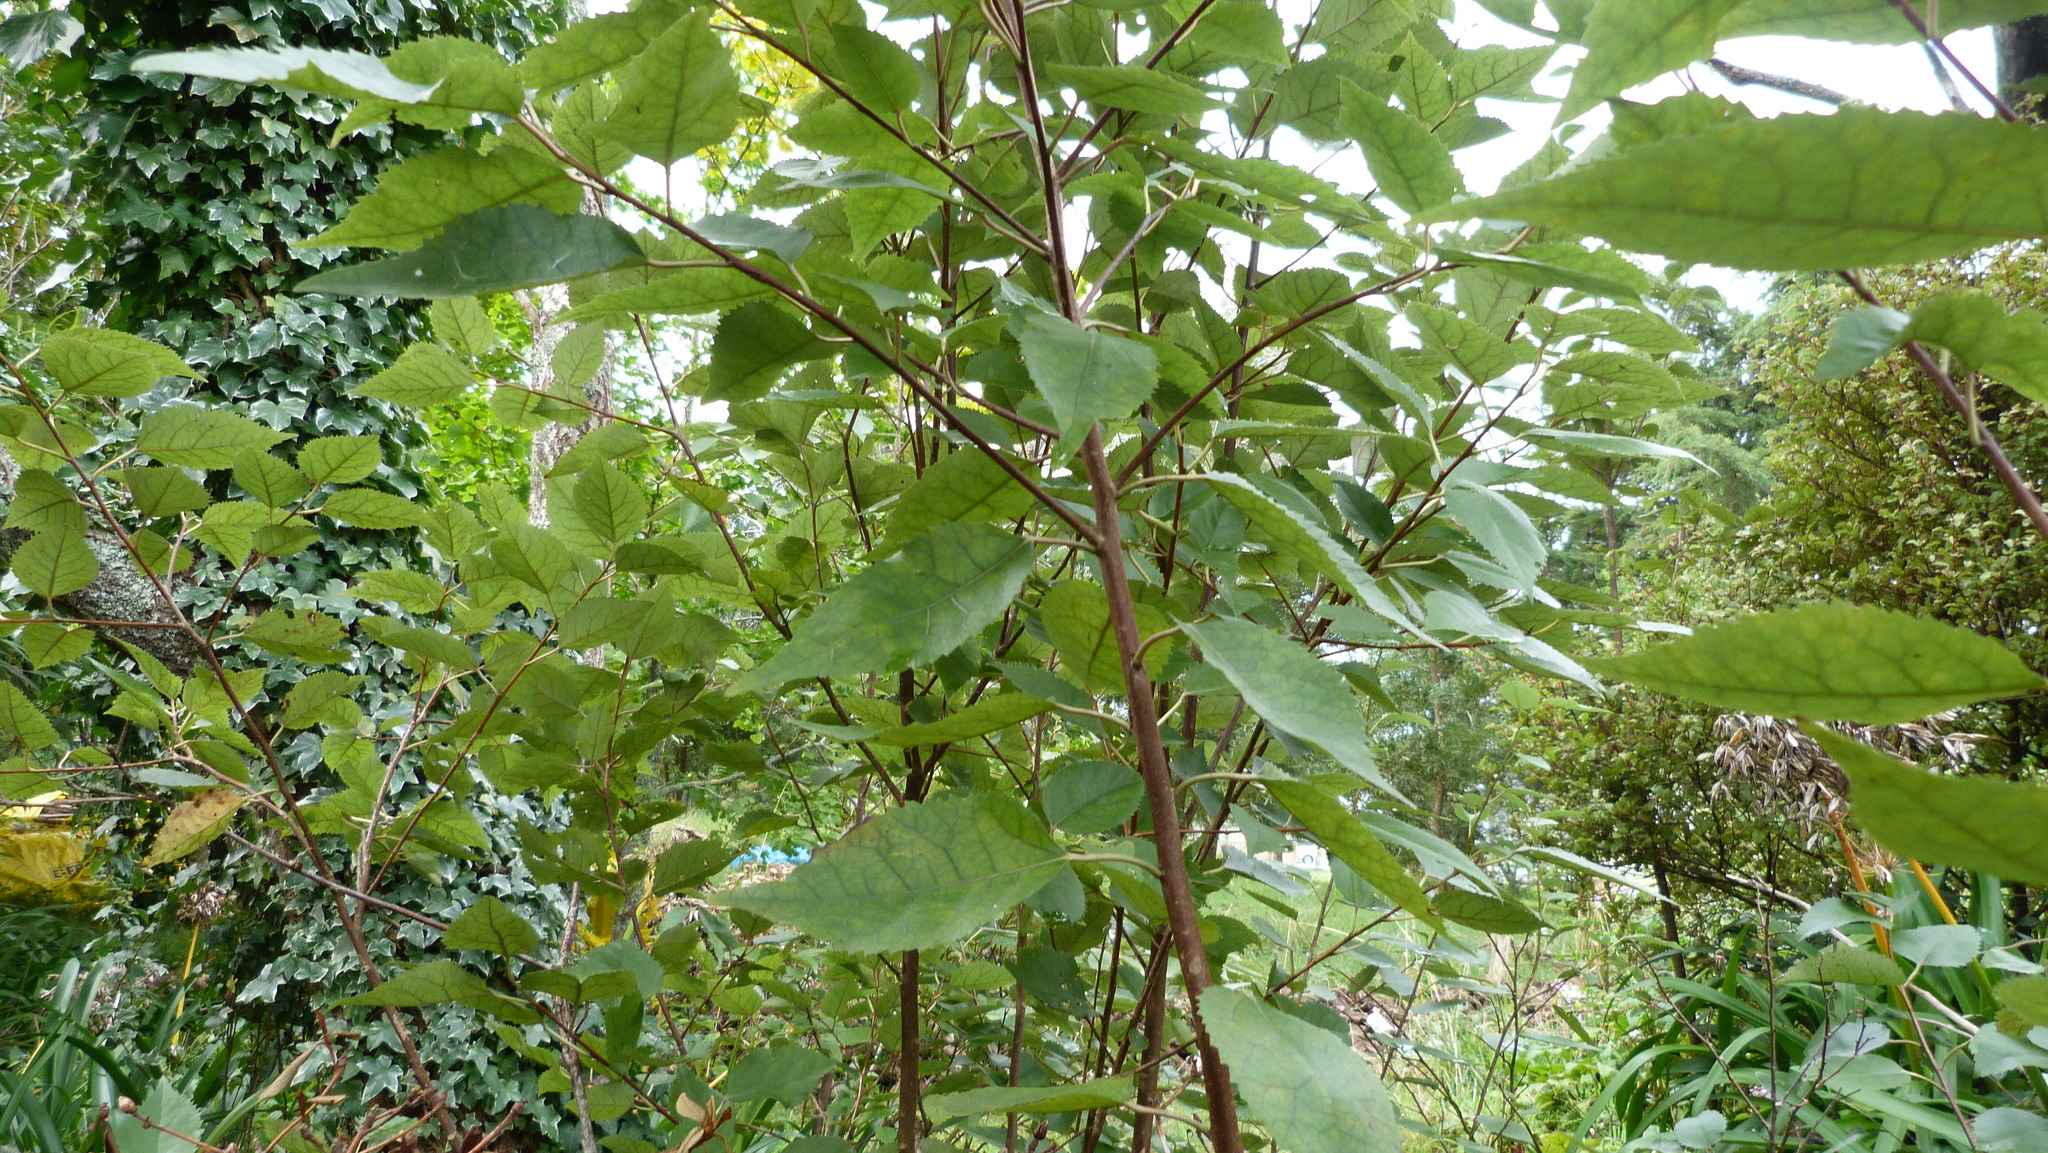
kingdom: Plantae
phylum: Tracheophyta
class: Magnoliopsida
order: Malvales
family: Malvaceae
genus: Hoheria
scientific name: Hoheria populnea
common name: Lacebark
